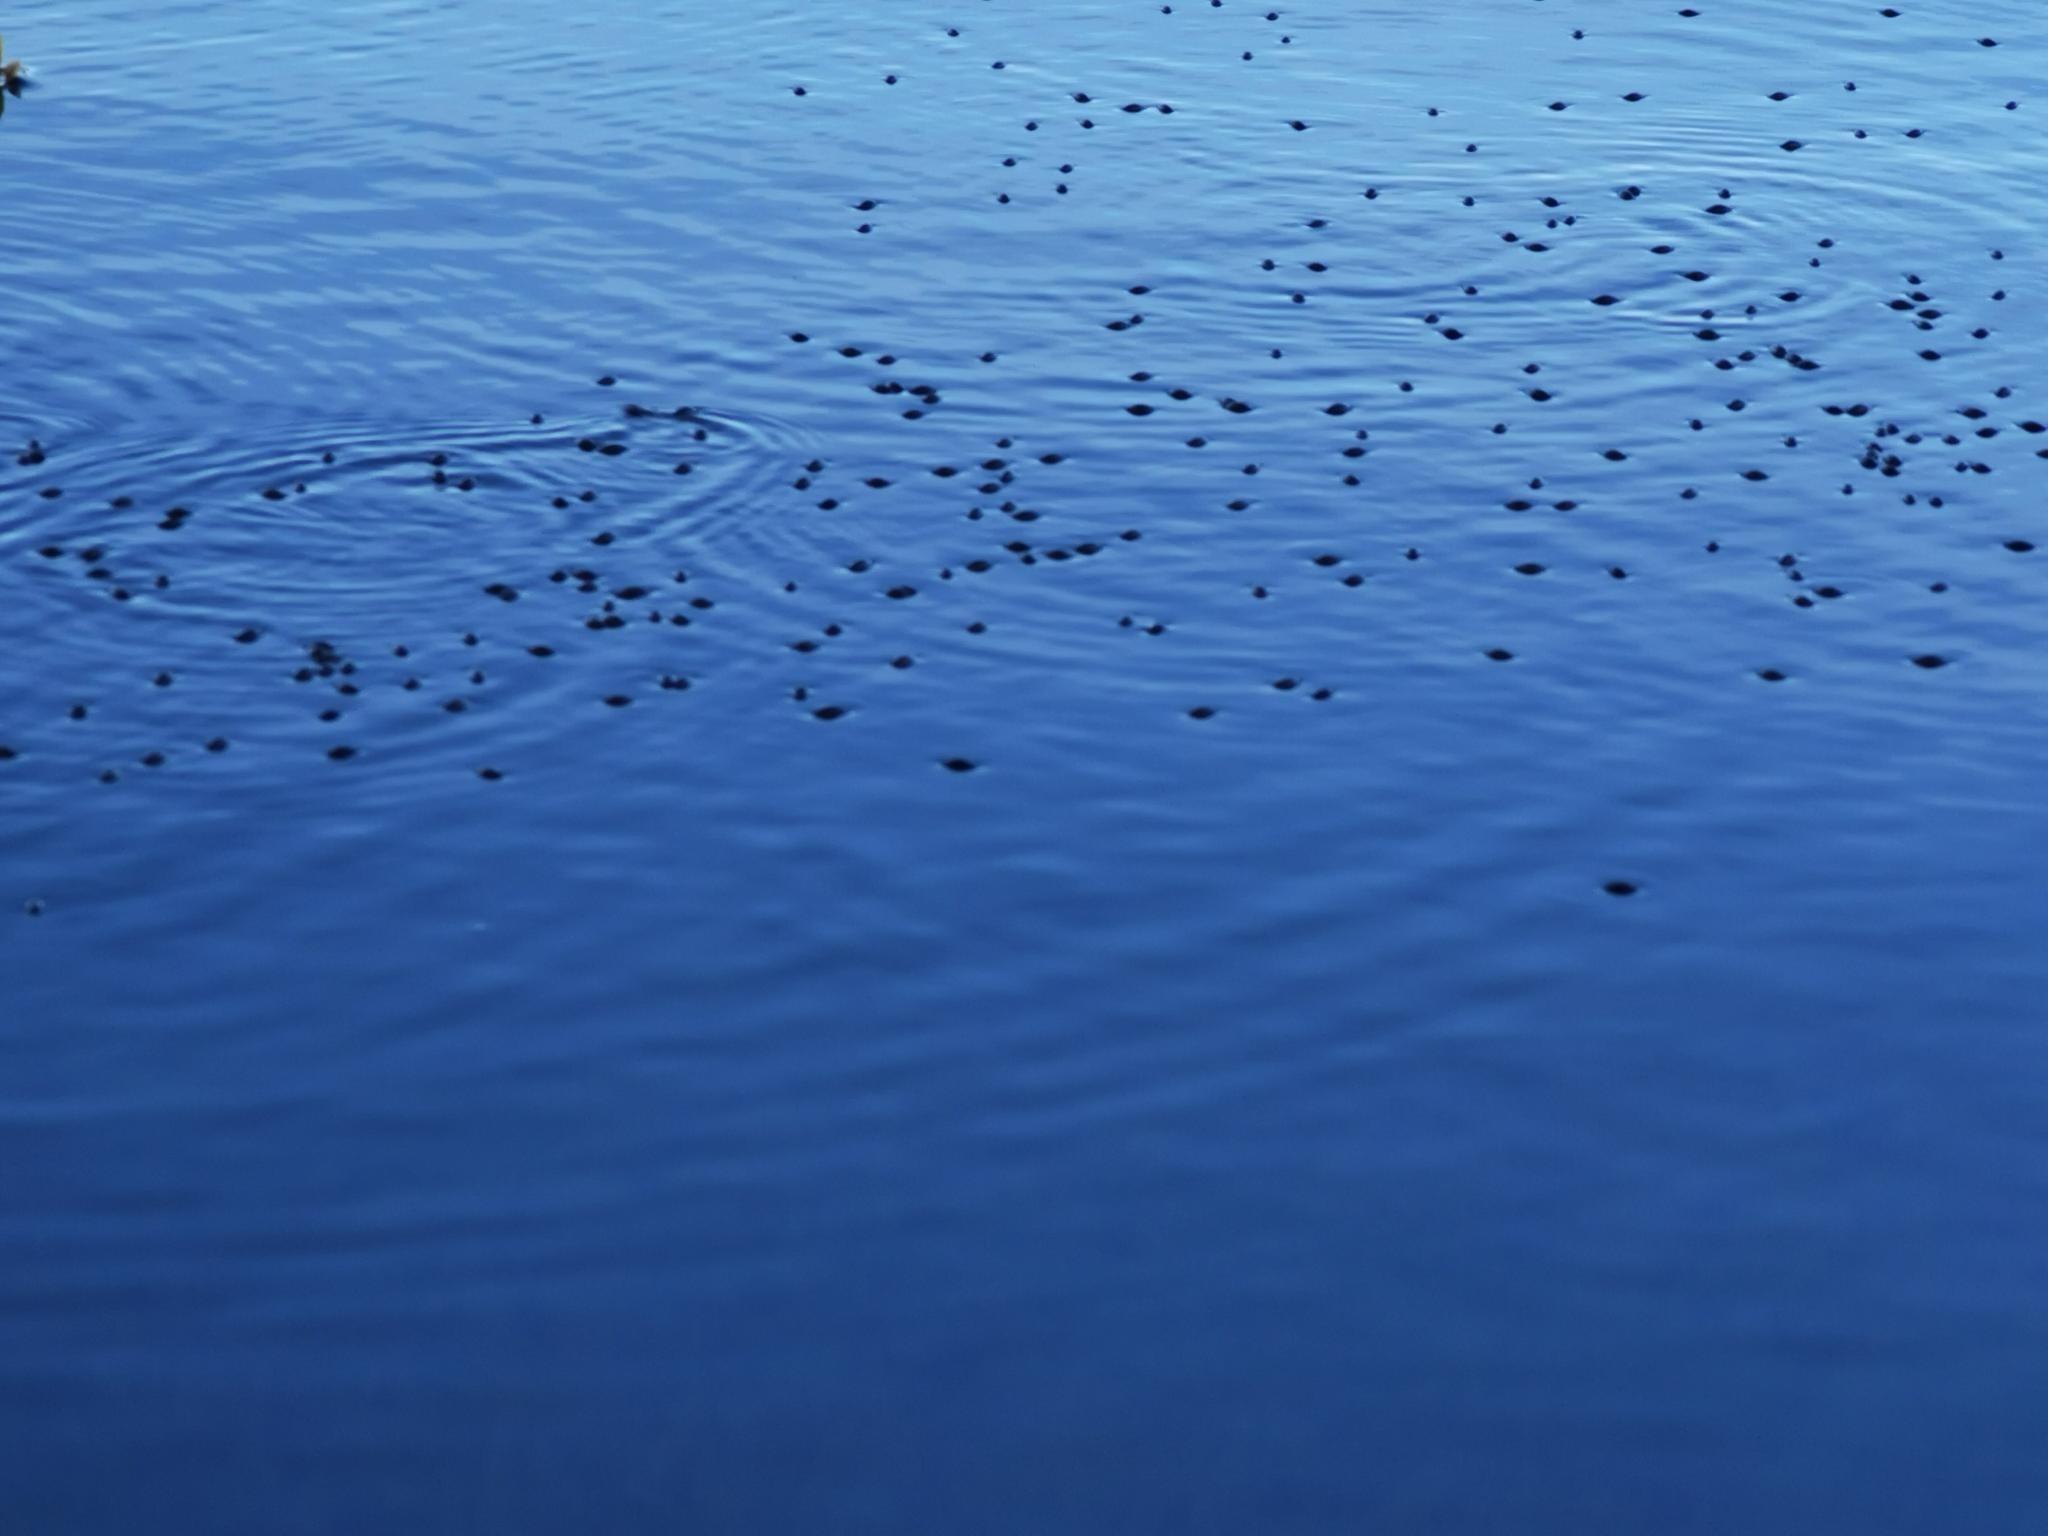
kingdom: Animalia
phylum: Arthropoda
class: Insecta
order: Coleoptera
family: Gyrinidae
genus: Gyrinus
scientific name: Gyrinus
